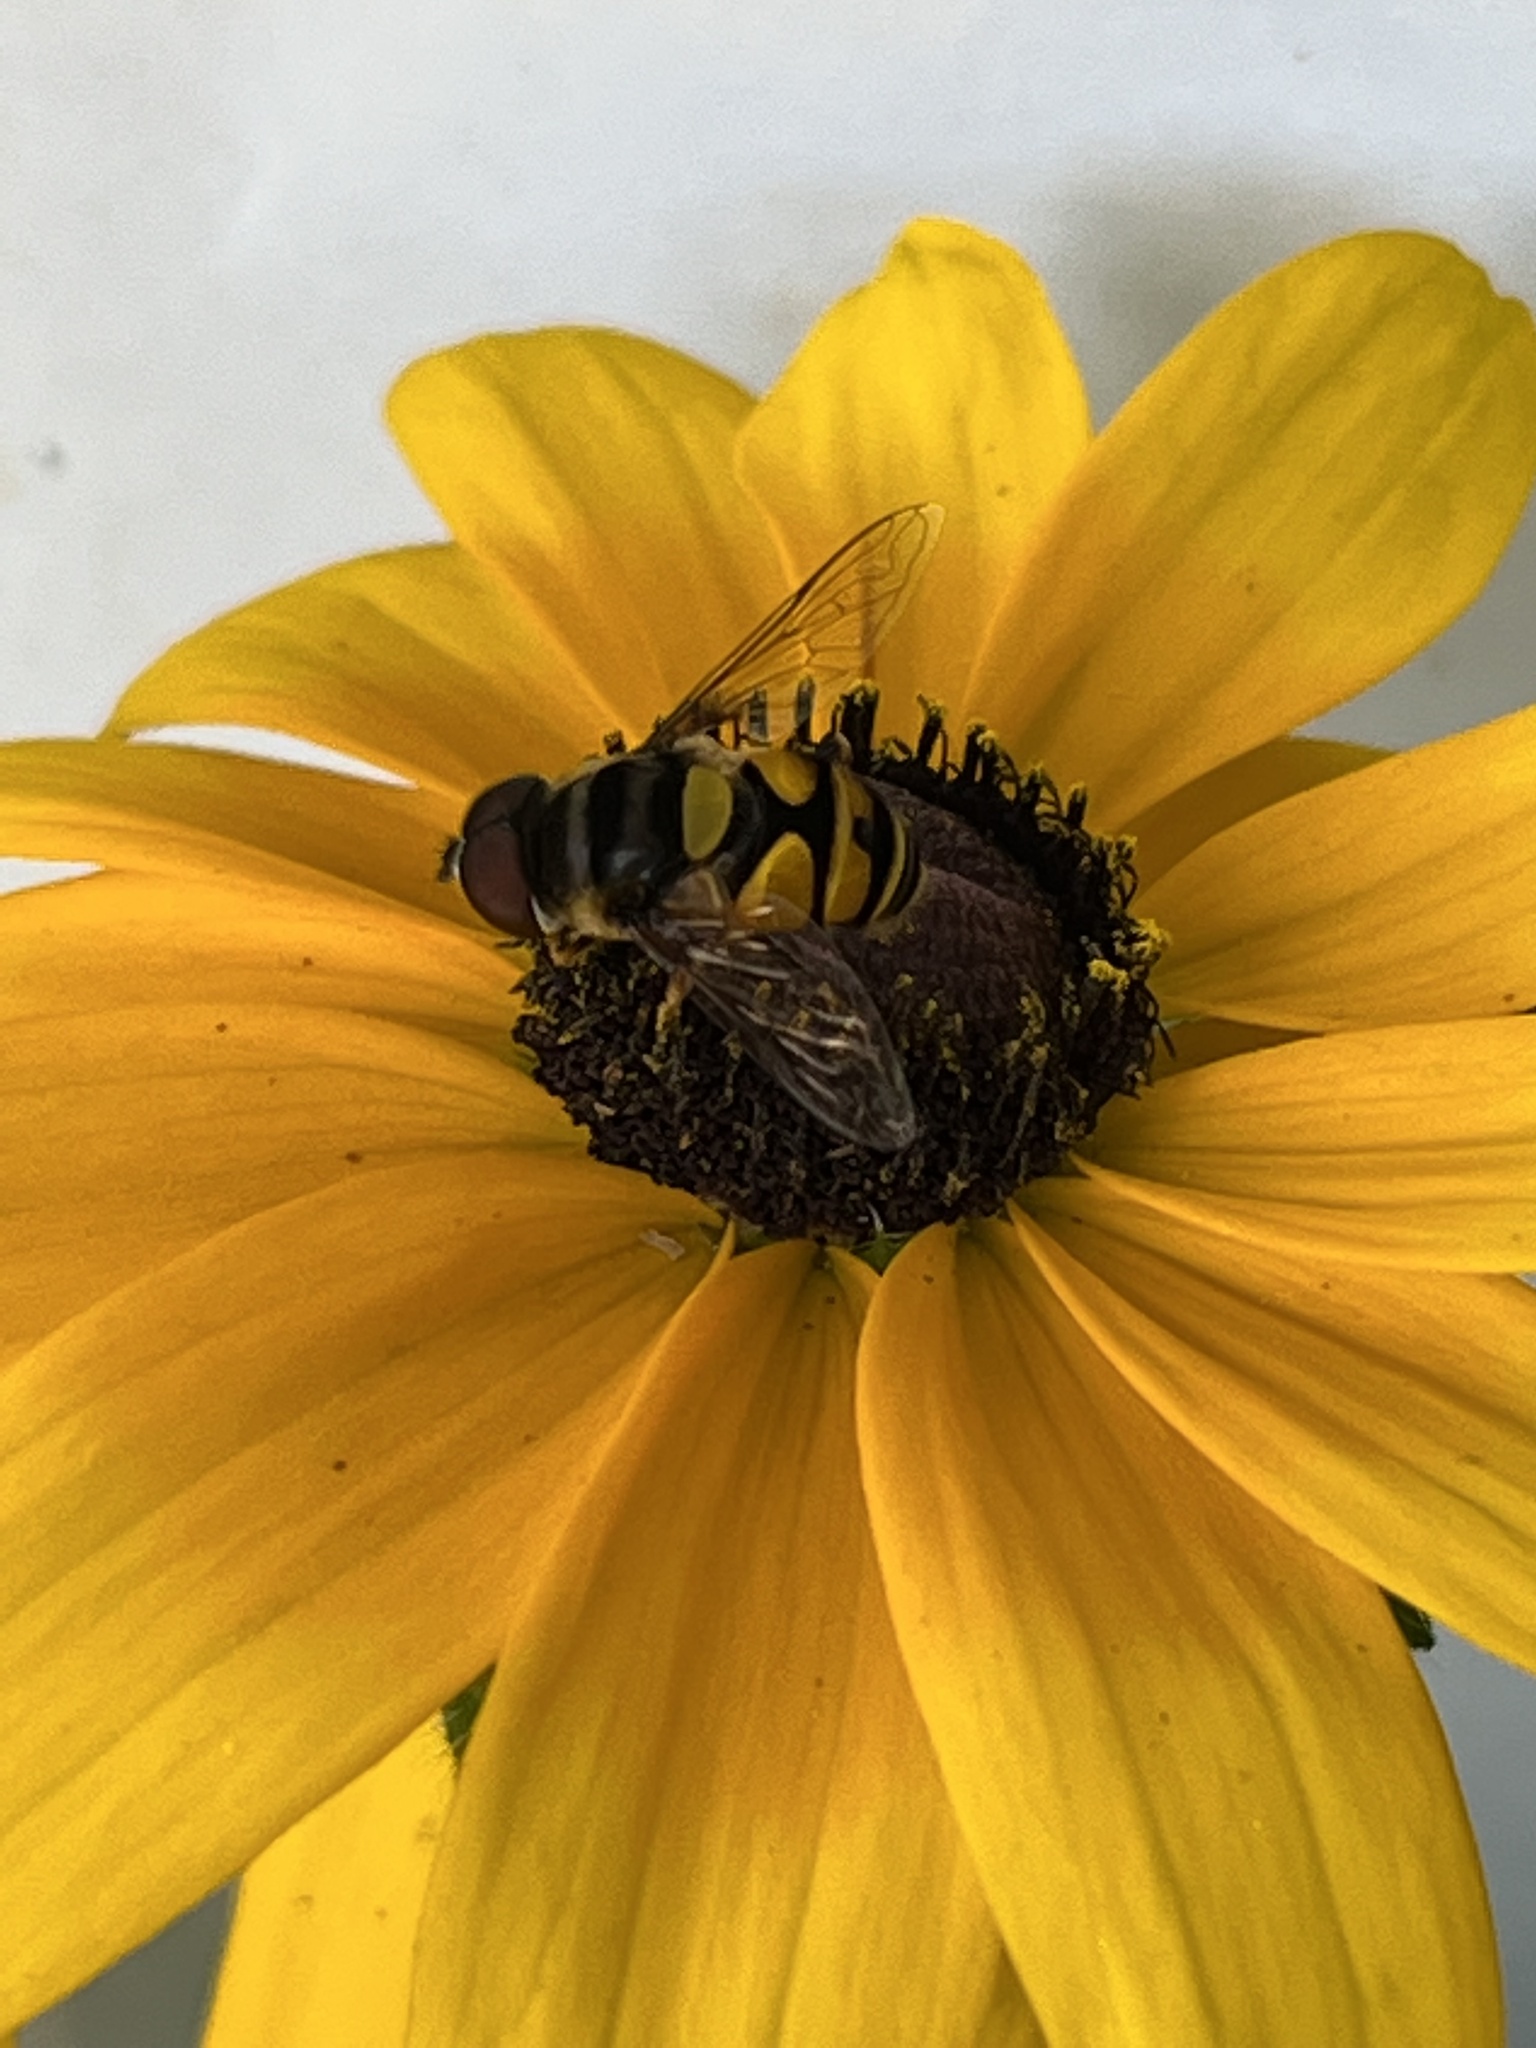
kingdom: Animalia
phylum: Arthropoda
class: Insecta
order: Diptera
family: Syrphidae
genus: Eristalis
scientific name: Eristalis transversa
